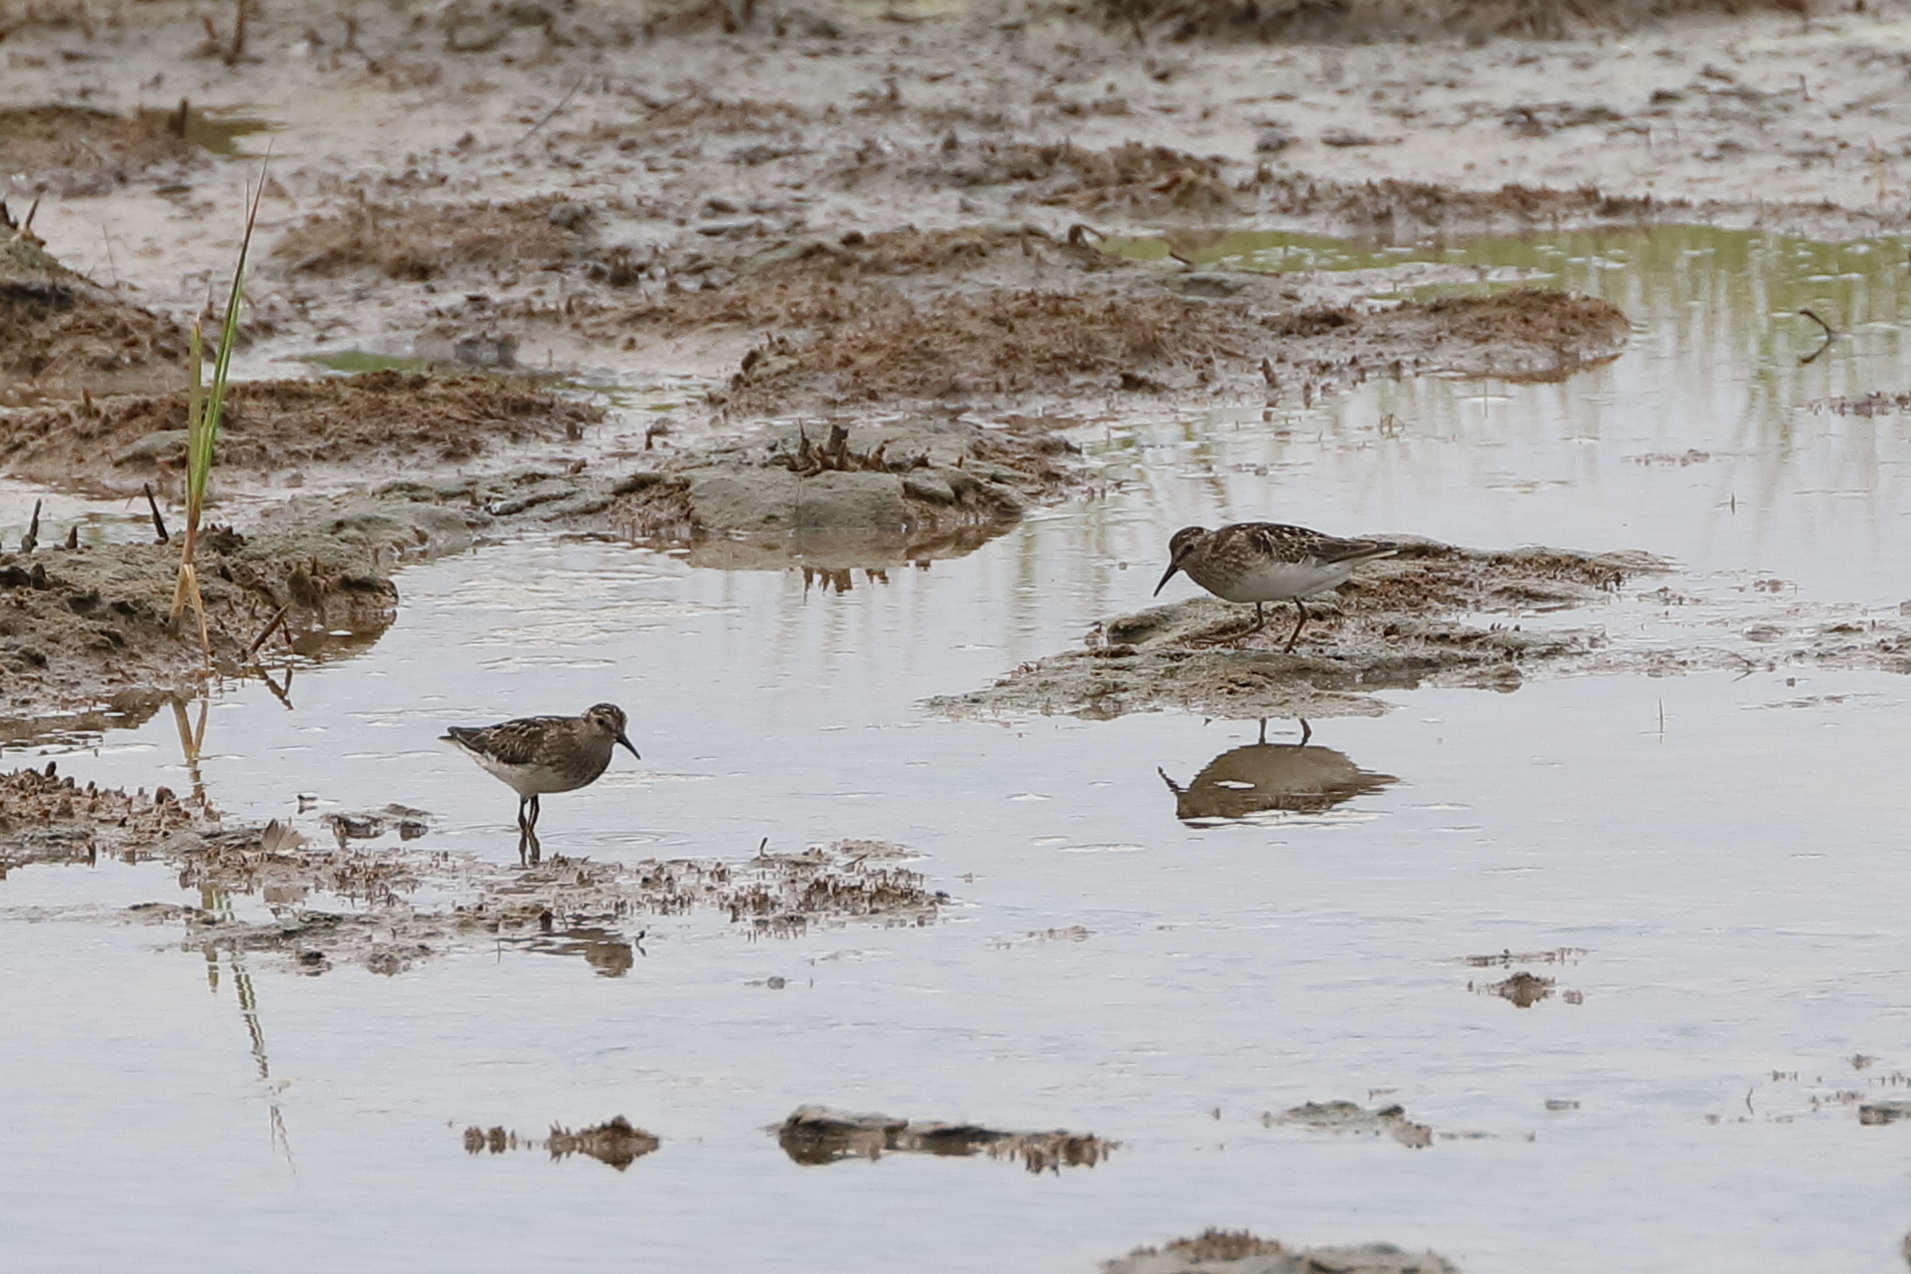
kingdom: Animalia
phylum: Chordata
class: Aves
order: Charadriiformes
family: Scolopacidae
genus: Calidris
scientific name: Calidris minutilla
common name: Least sandpiper
